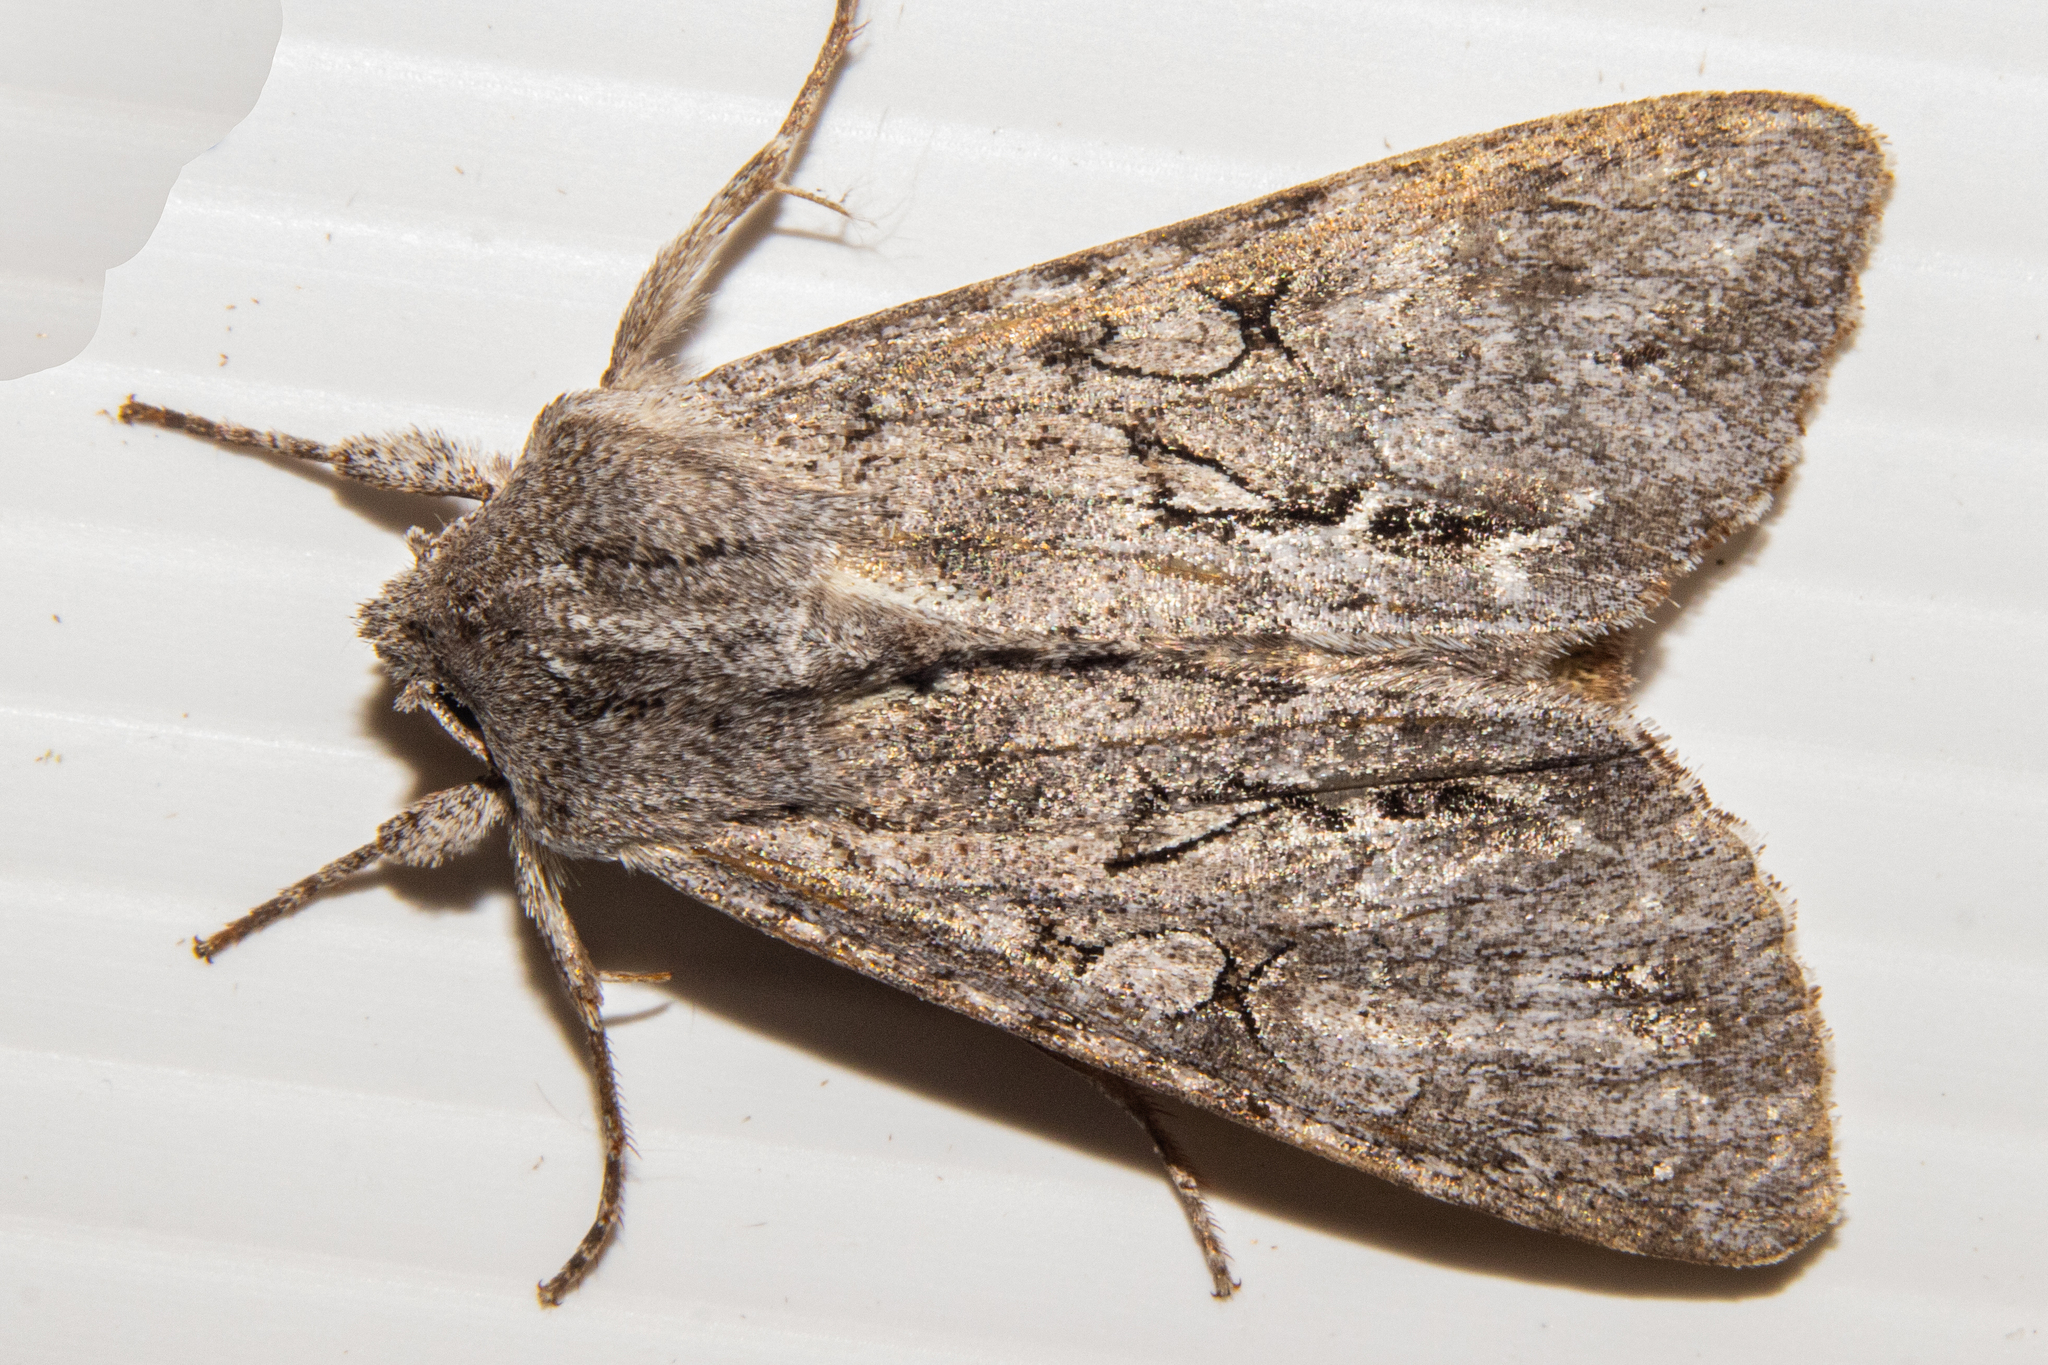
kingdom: Animalia
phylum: Arthropoda
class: Insecta
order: Lepidoptera
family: Noctuidae
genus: Ichneutica
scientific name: Ichneutica
